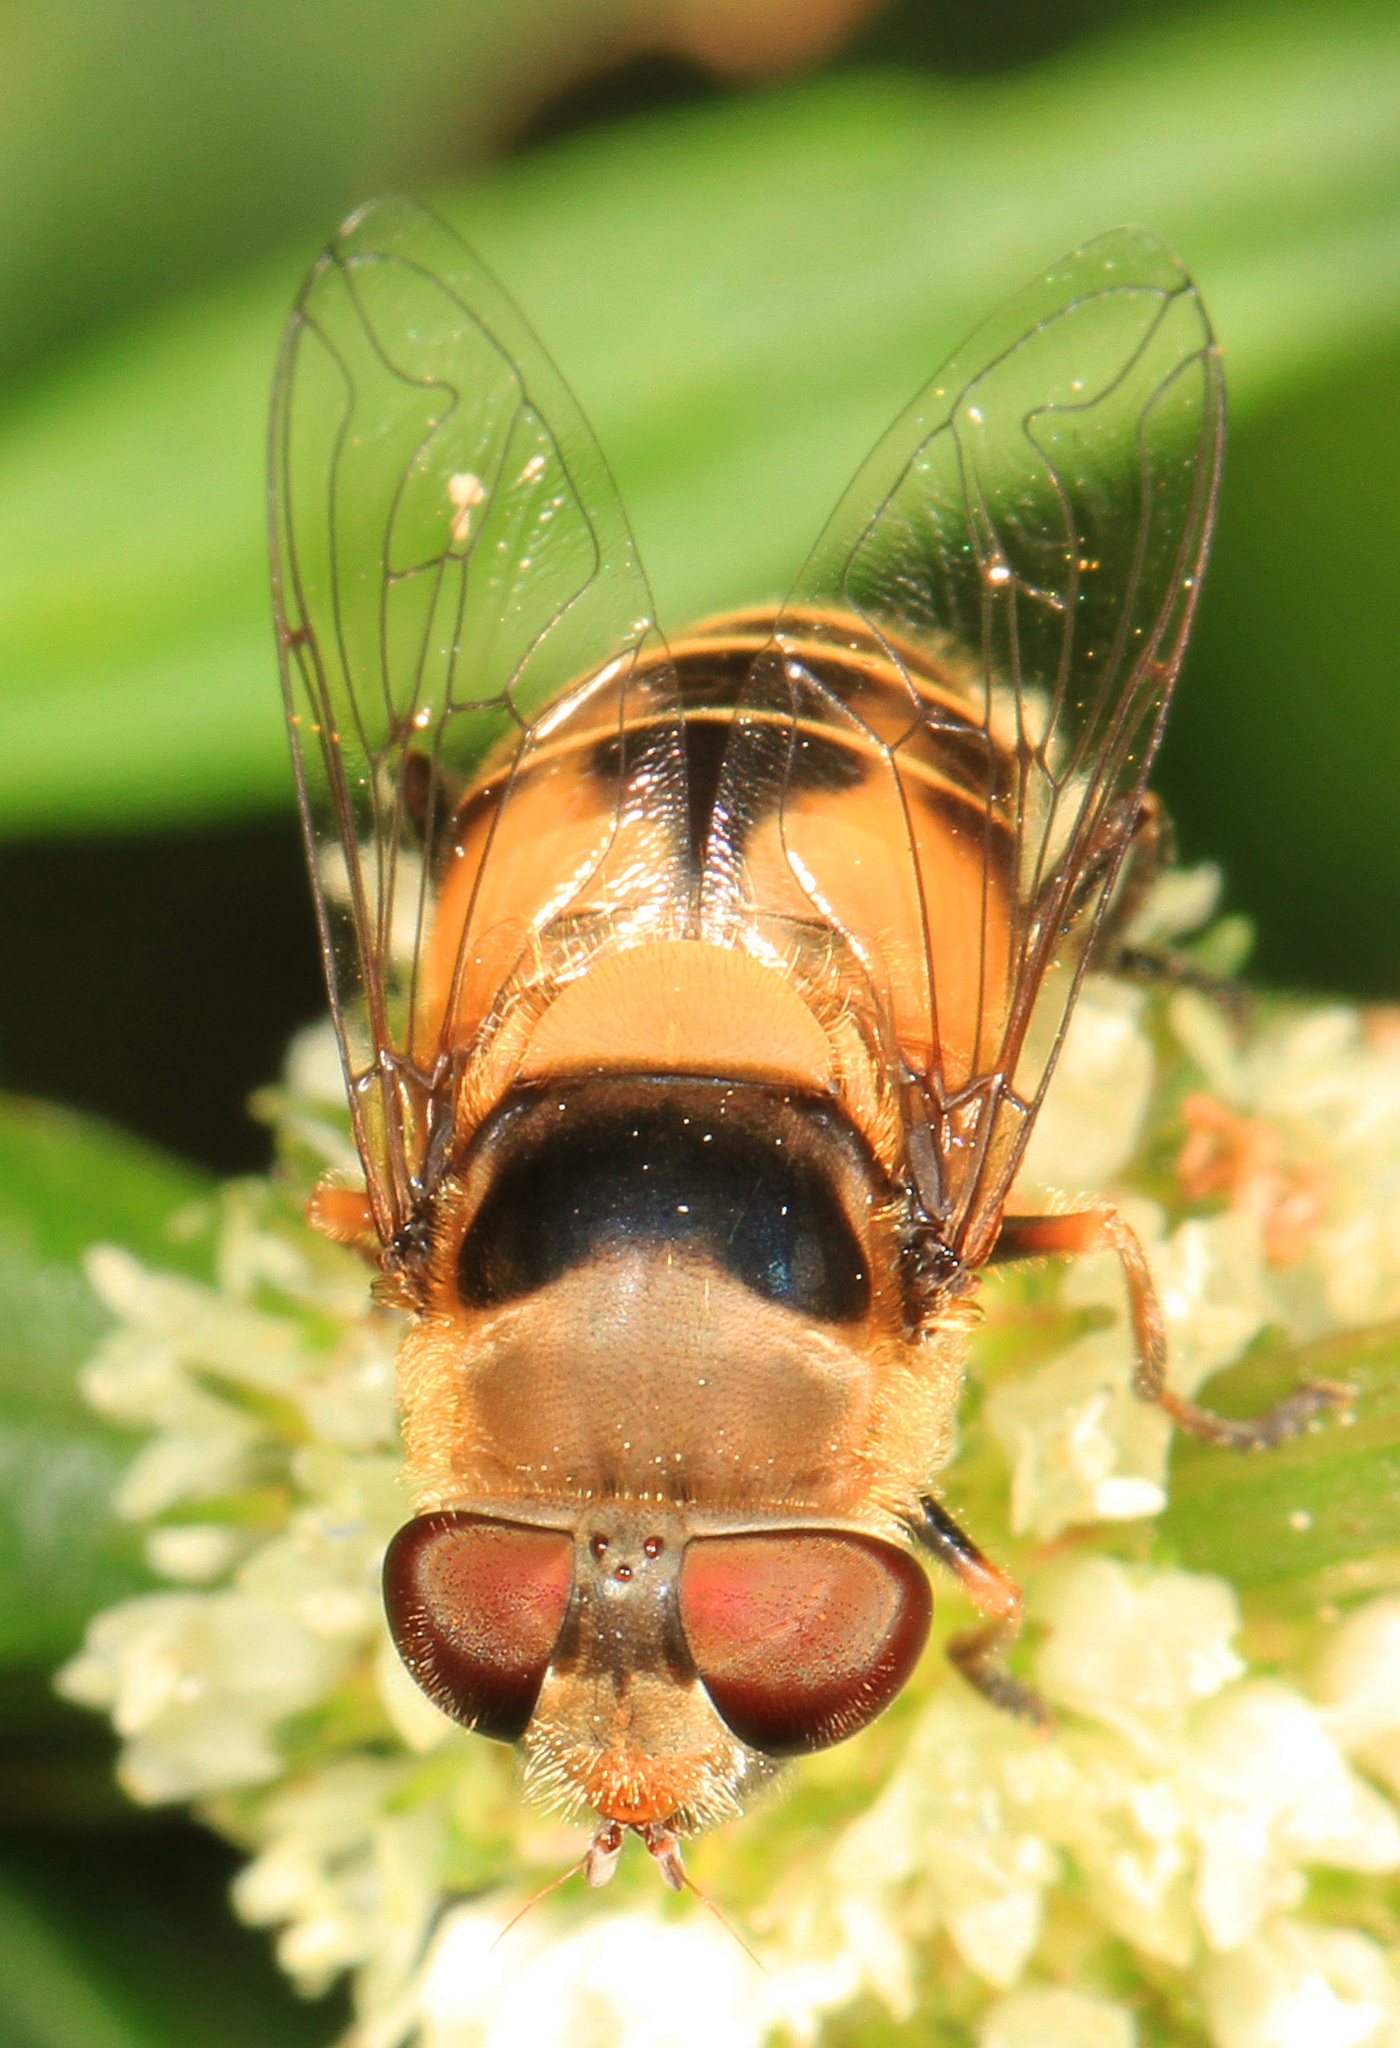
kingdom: Animalia
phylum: Arthropoda
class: Insecta
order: Diptera
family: Syrphidae
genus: Palpada
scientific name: Palpada pusilla
